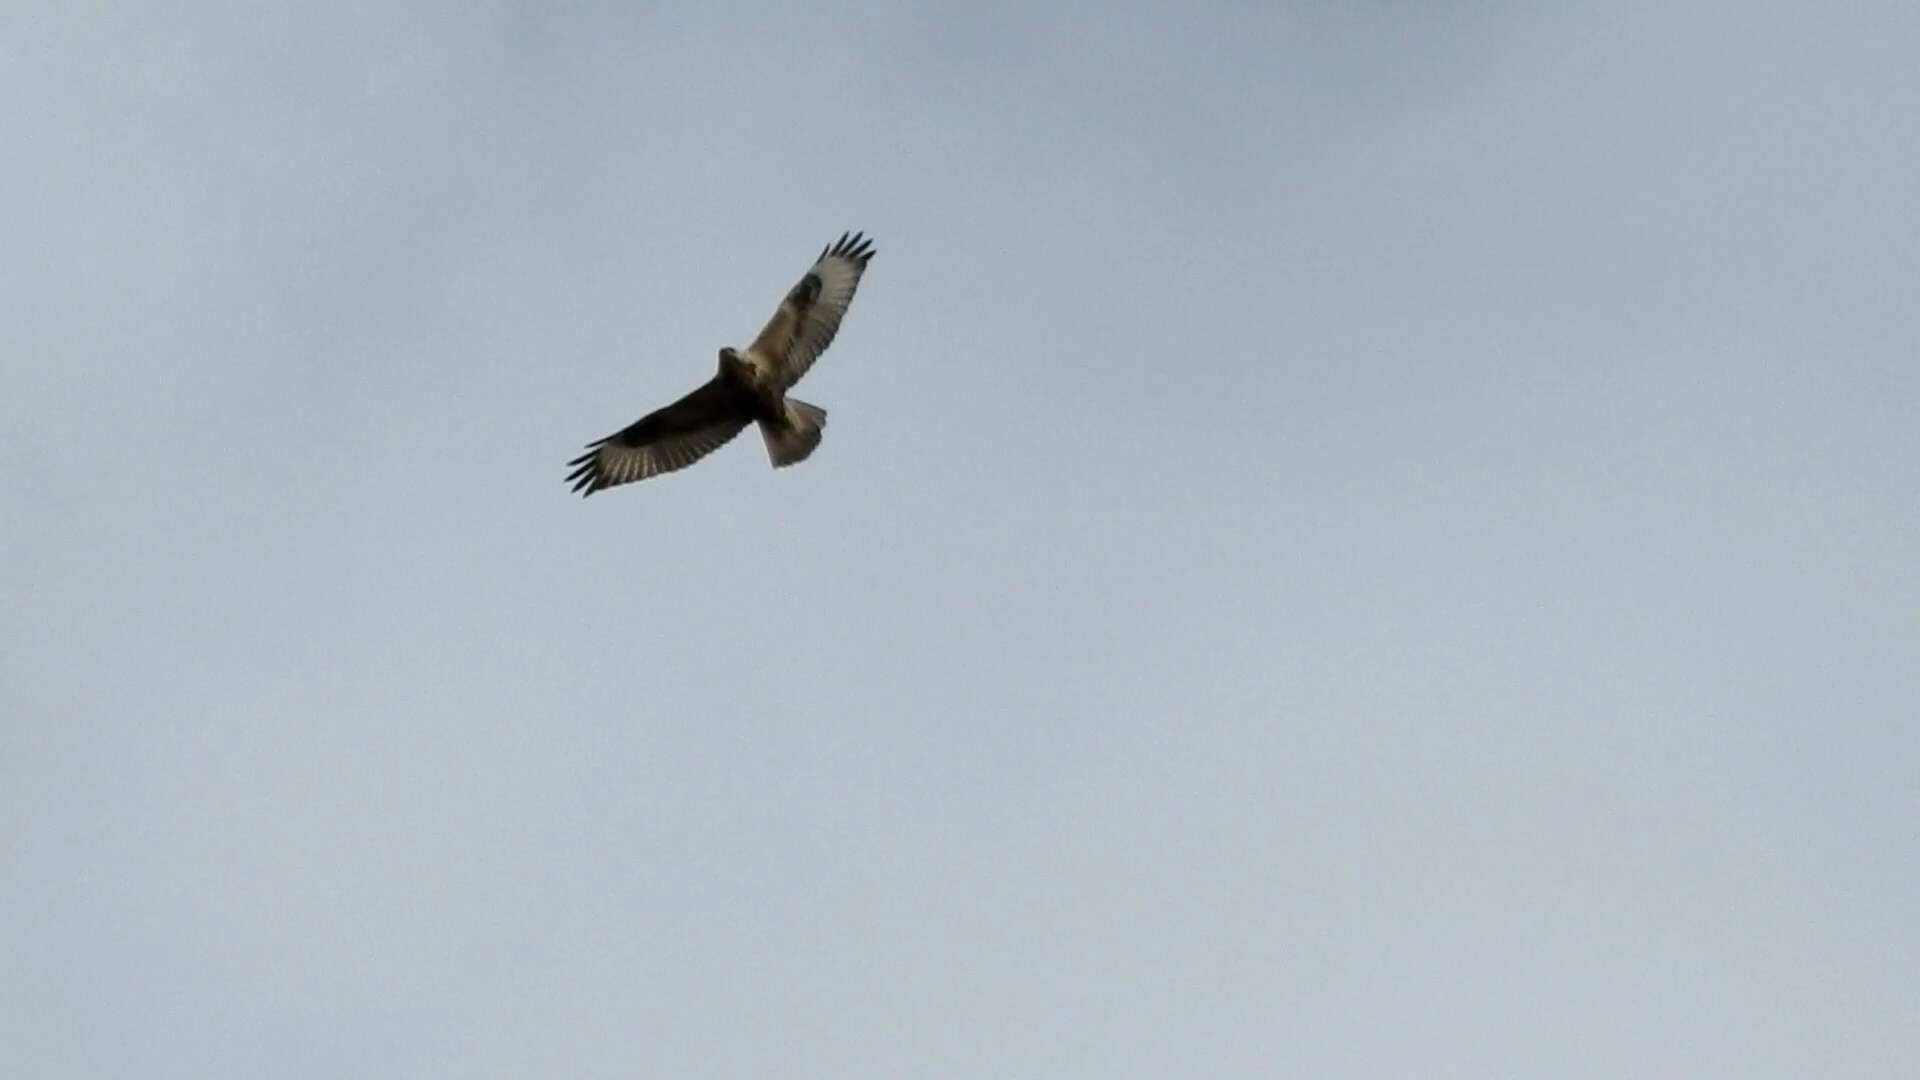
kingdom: Animalia
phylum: Chordata
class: Aves
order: Accipitriformes
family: Accipitridae
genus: Buteo
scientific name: Buteo hemilasius
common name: Upland buzzard
